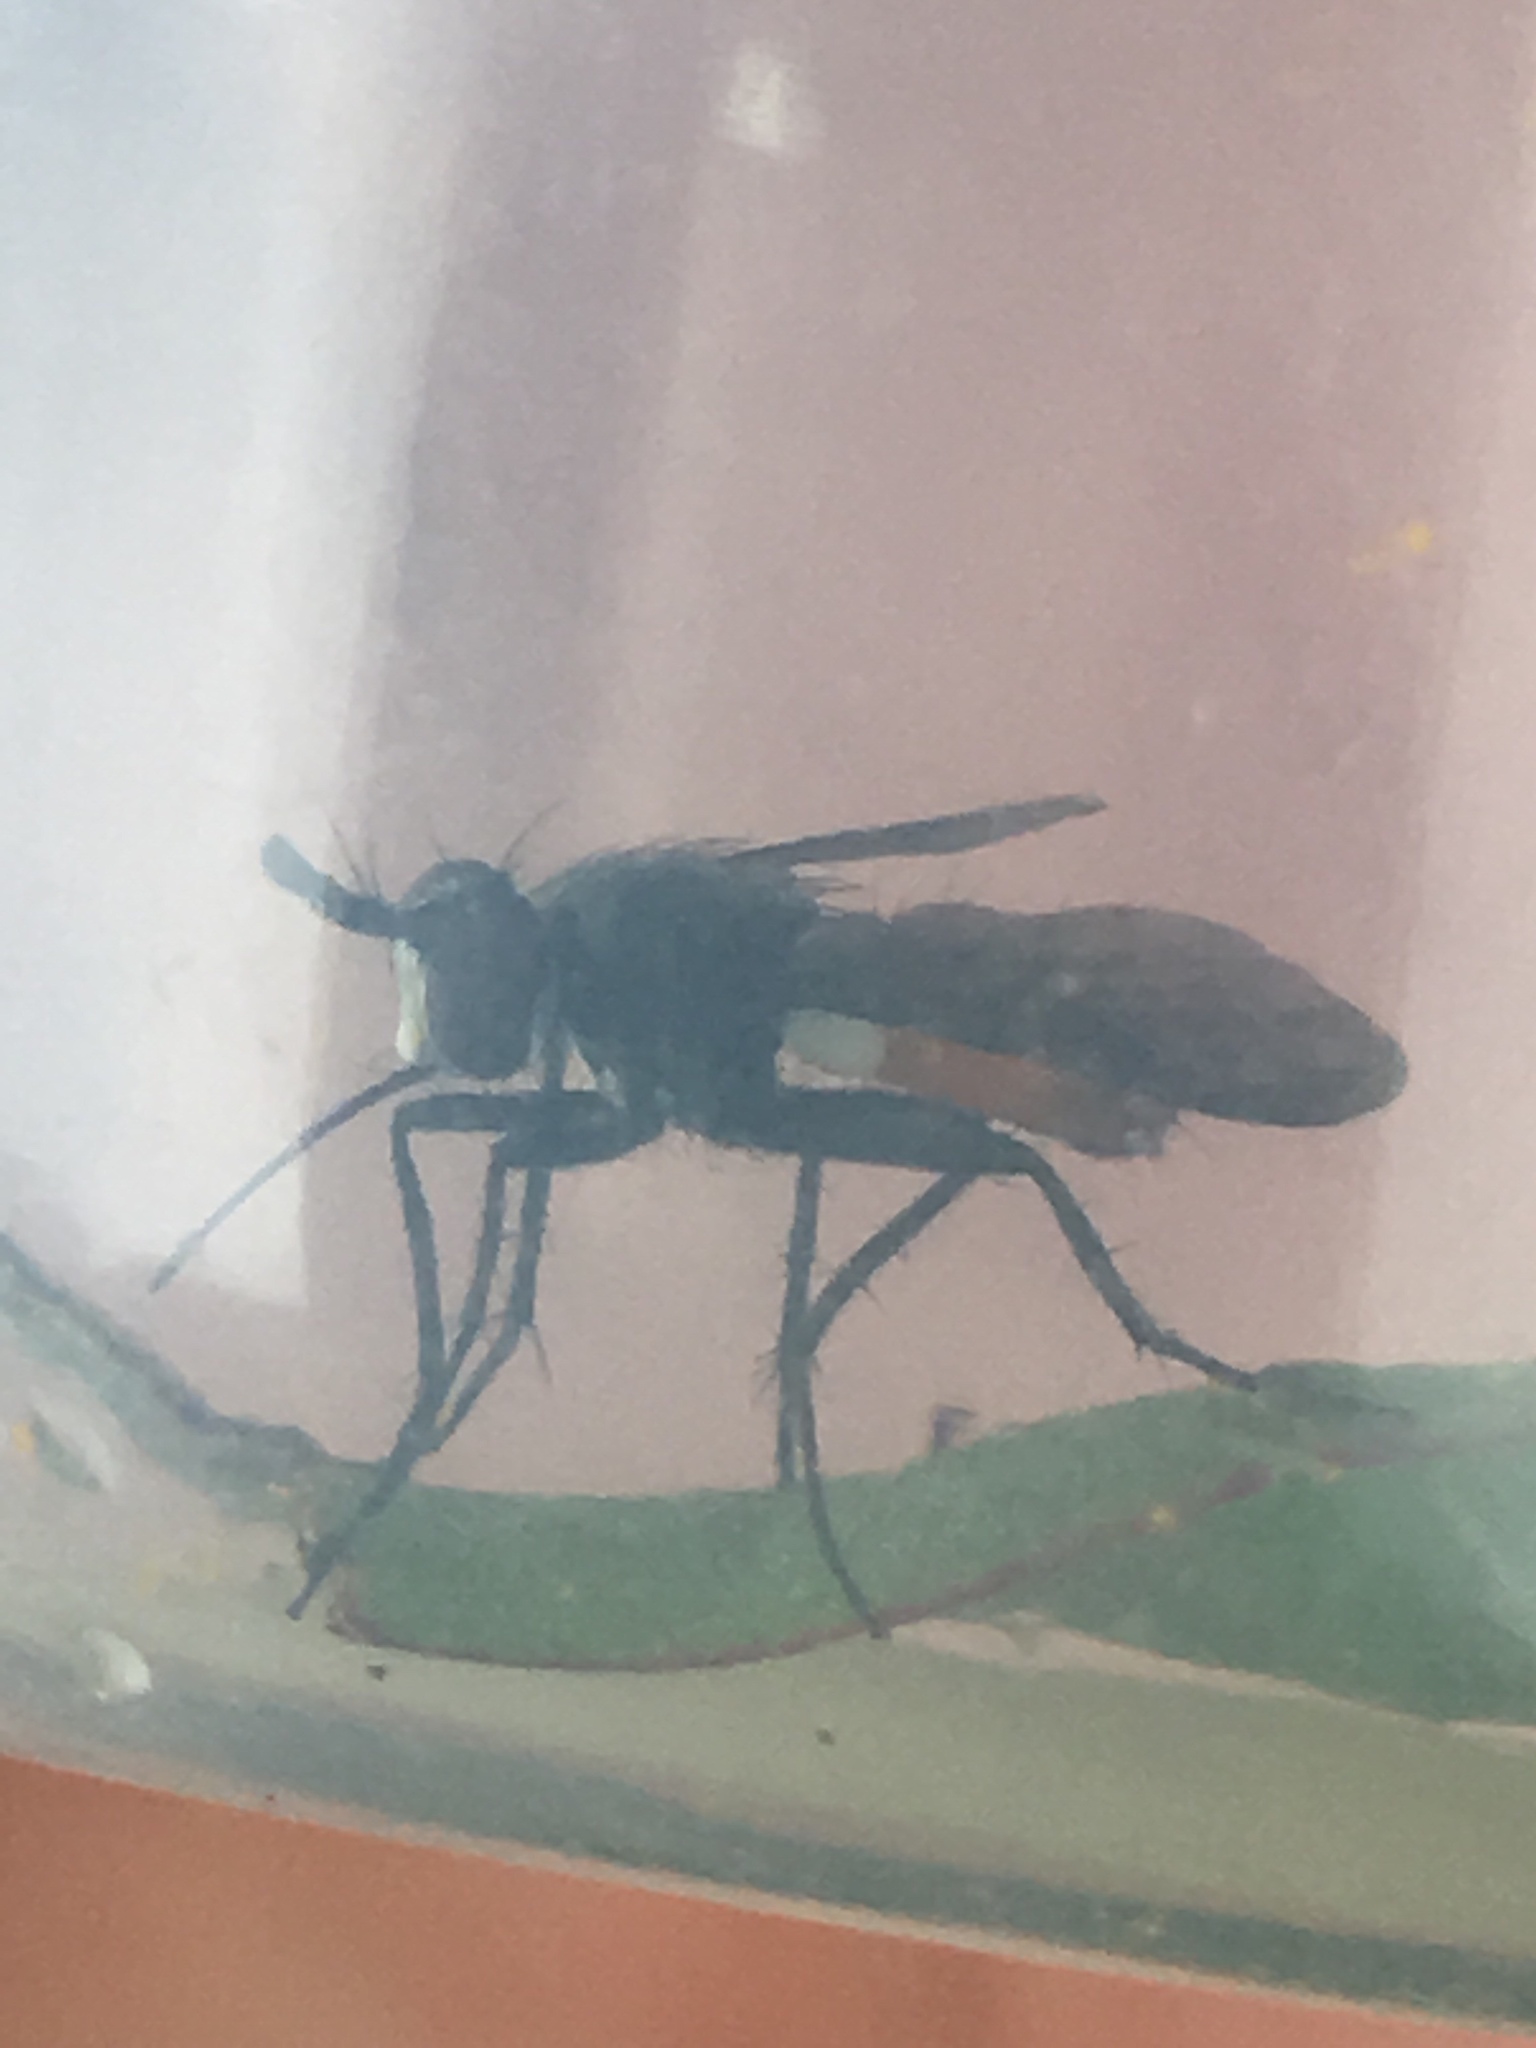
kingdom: Animalia
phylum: Arthropoda
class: Insecta
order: Diptera
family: Tachinidae
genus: Beskia
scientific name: Beskia aelops
